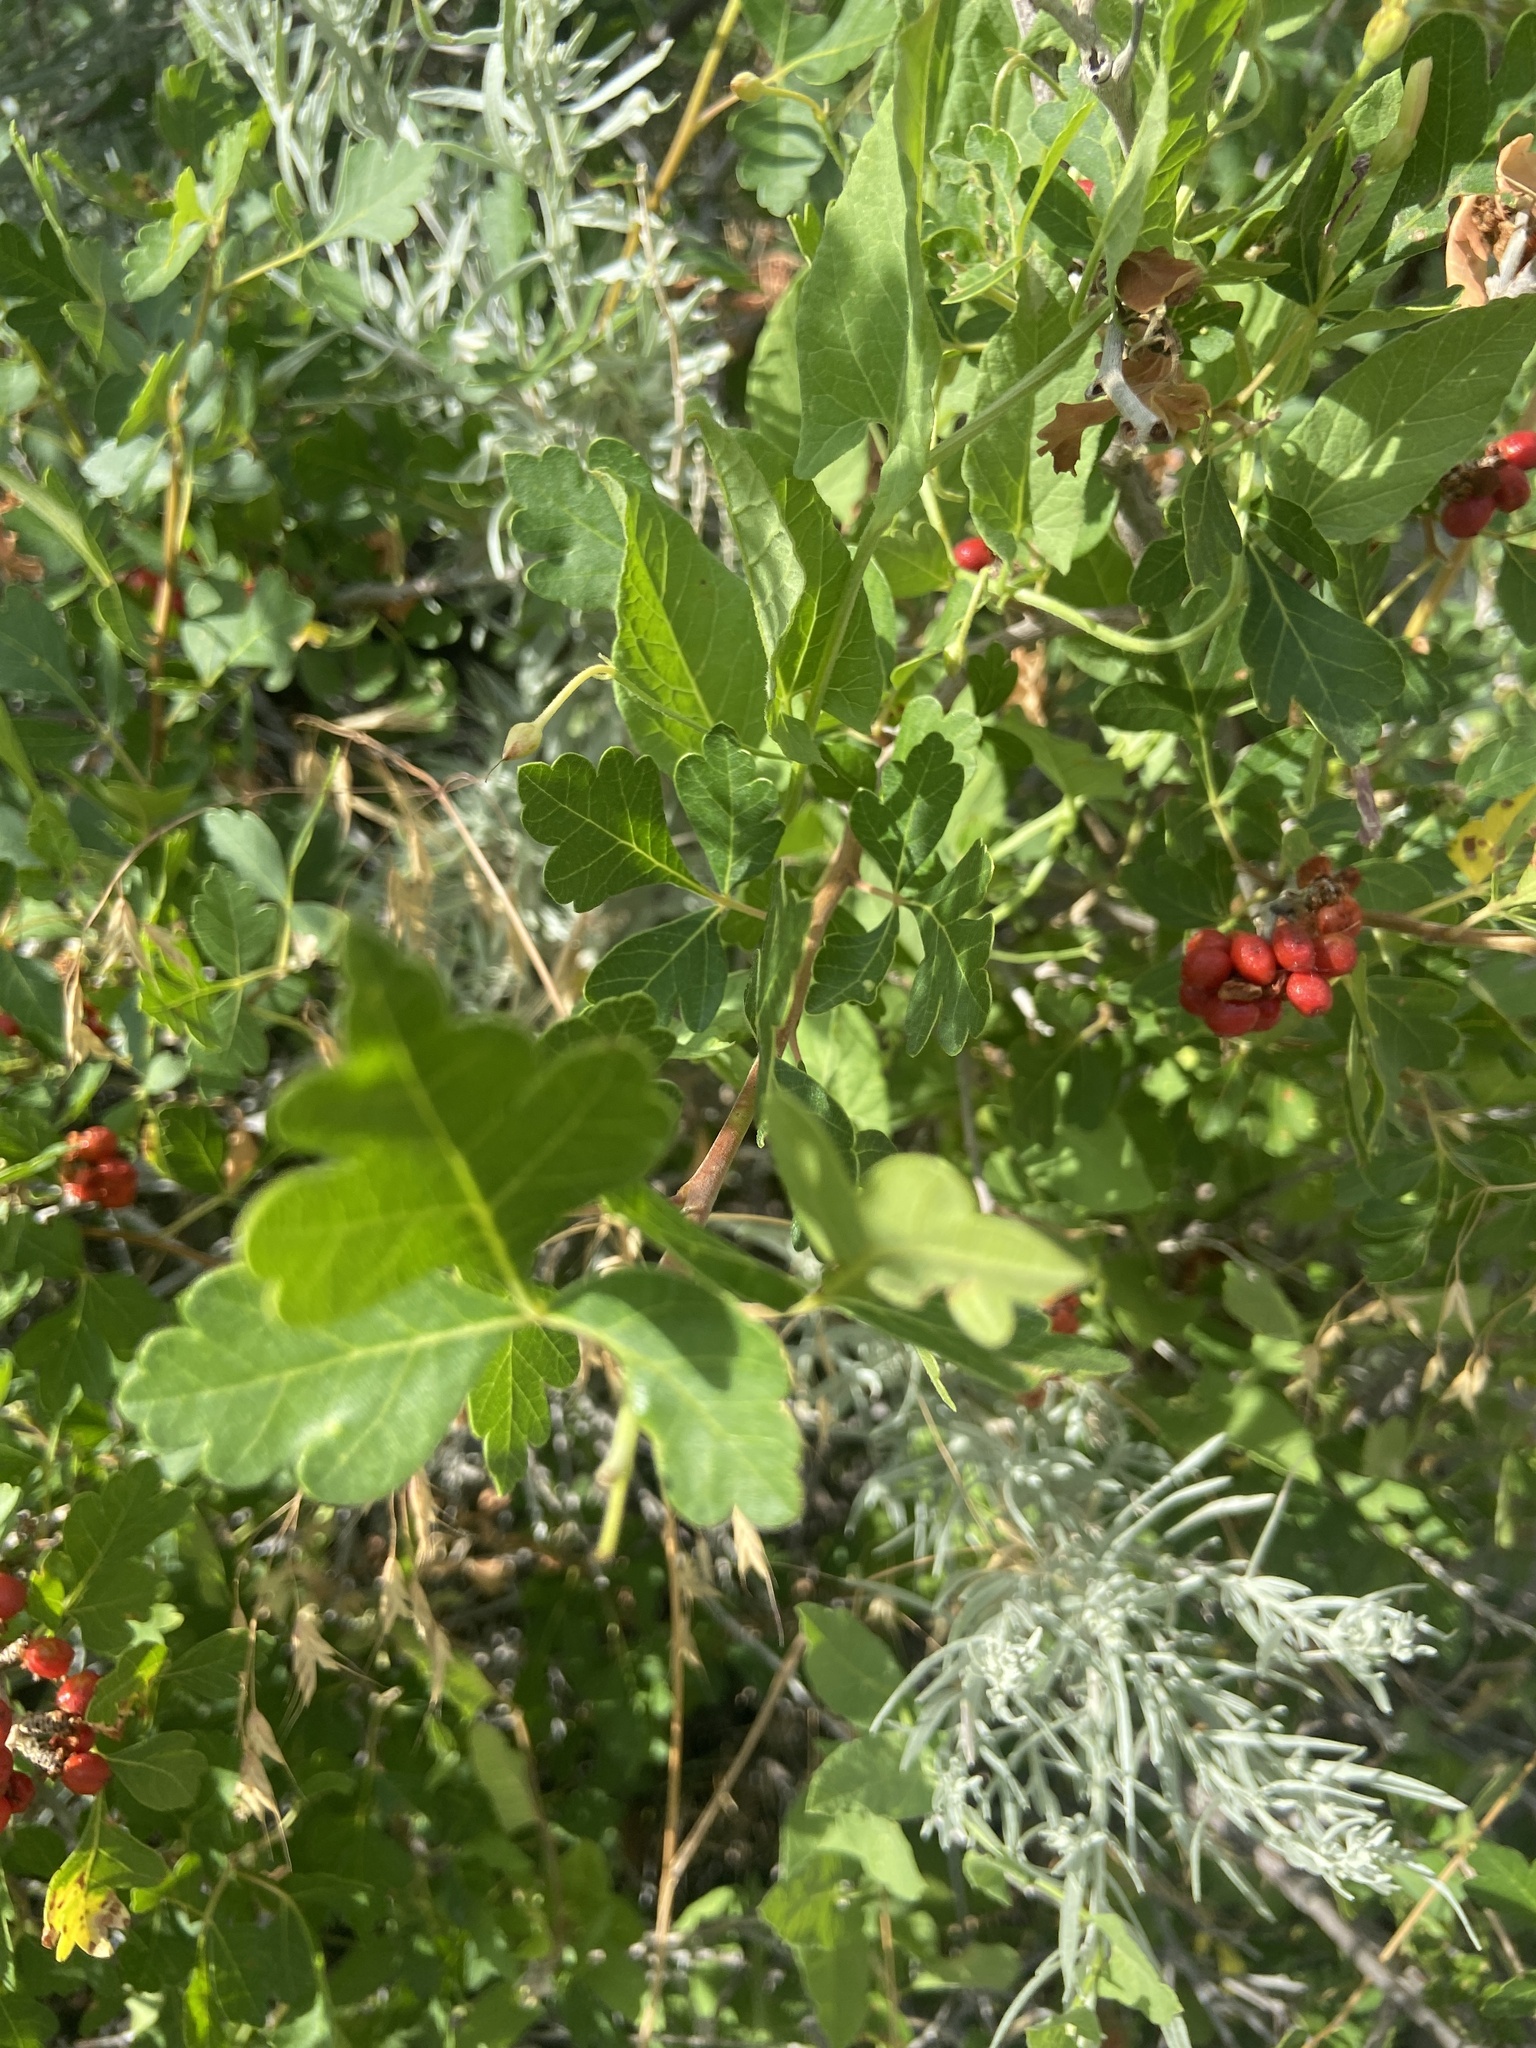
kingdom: Plantae
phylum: Tracheophyta
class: Magnoliopsida
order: Sapindales
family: Anacardiaceae
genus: Rhus
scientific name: Rhus trilobata
